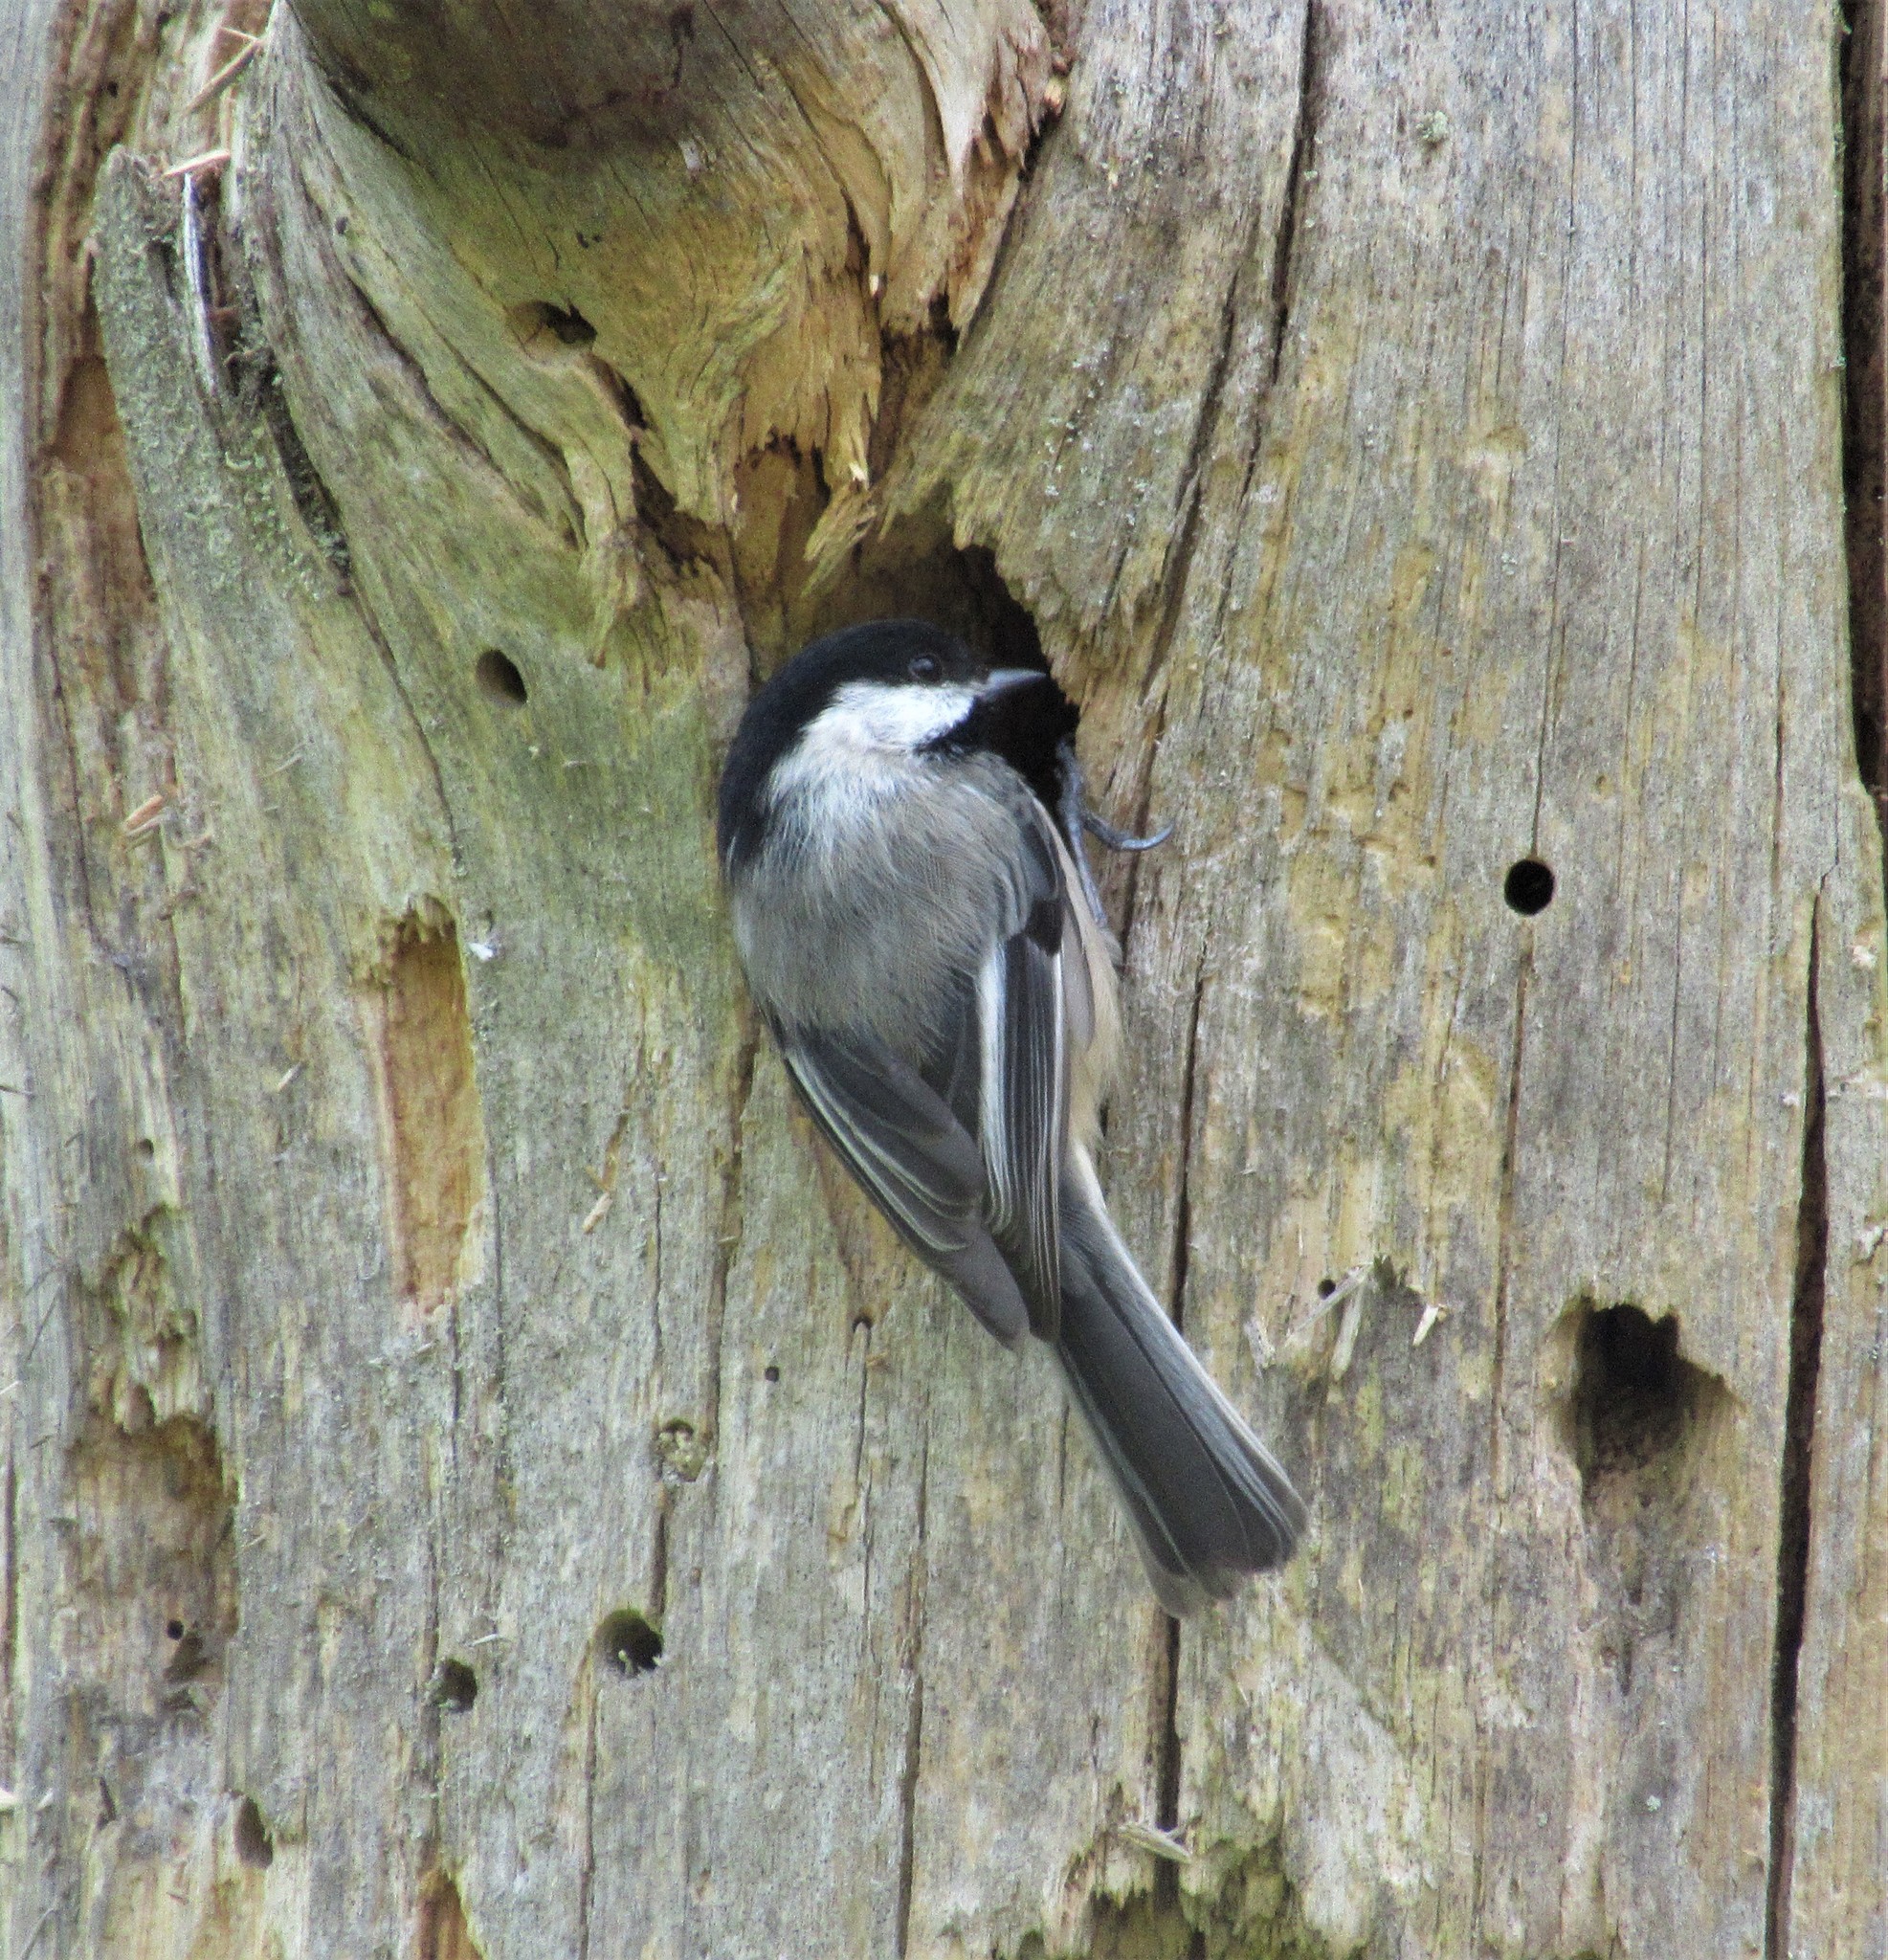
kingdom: Animalia
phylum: Chordata
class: Aves
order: Passeriformes
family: Paridae
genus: Poecile
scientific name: Poecile atricapillus
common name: Black-capped chickadee
